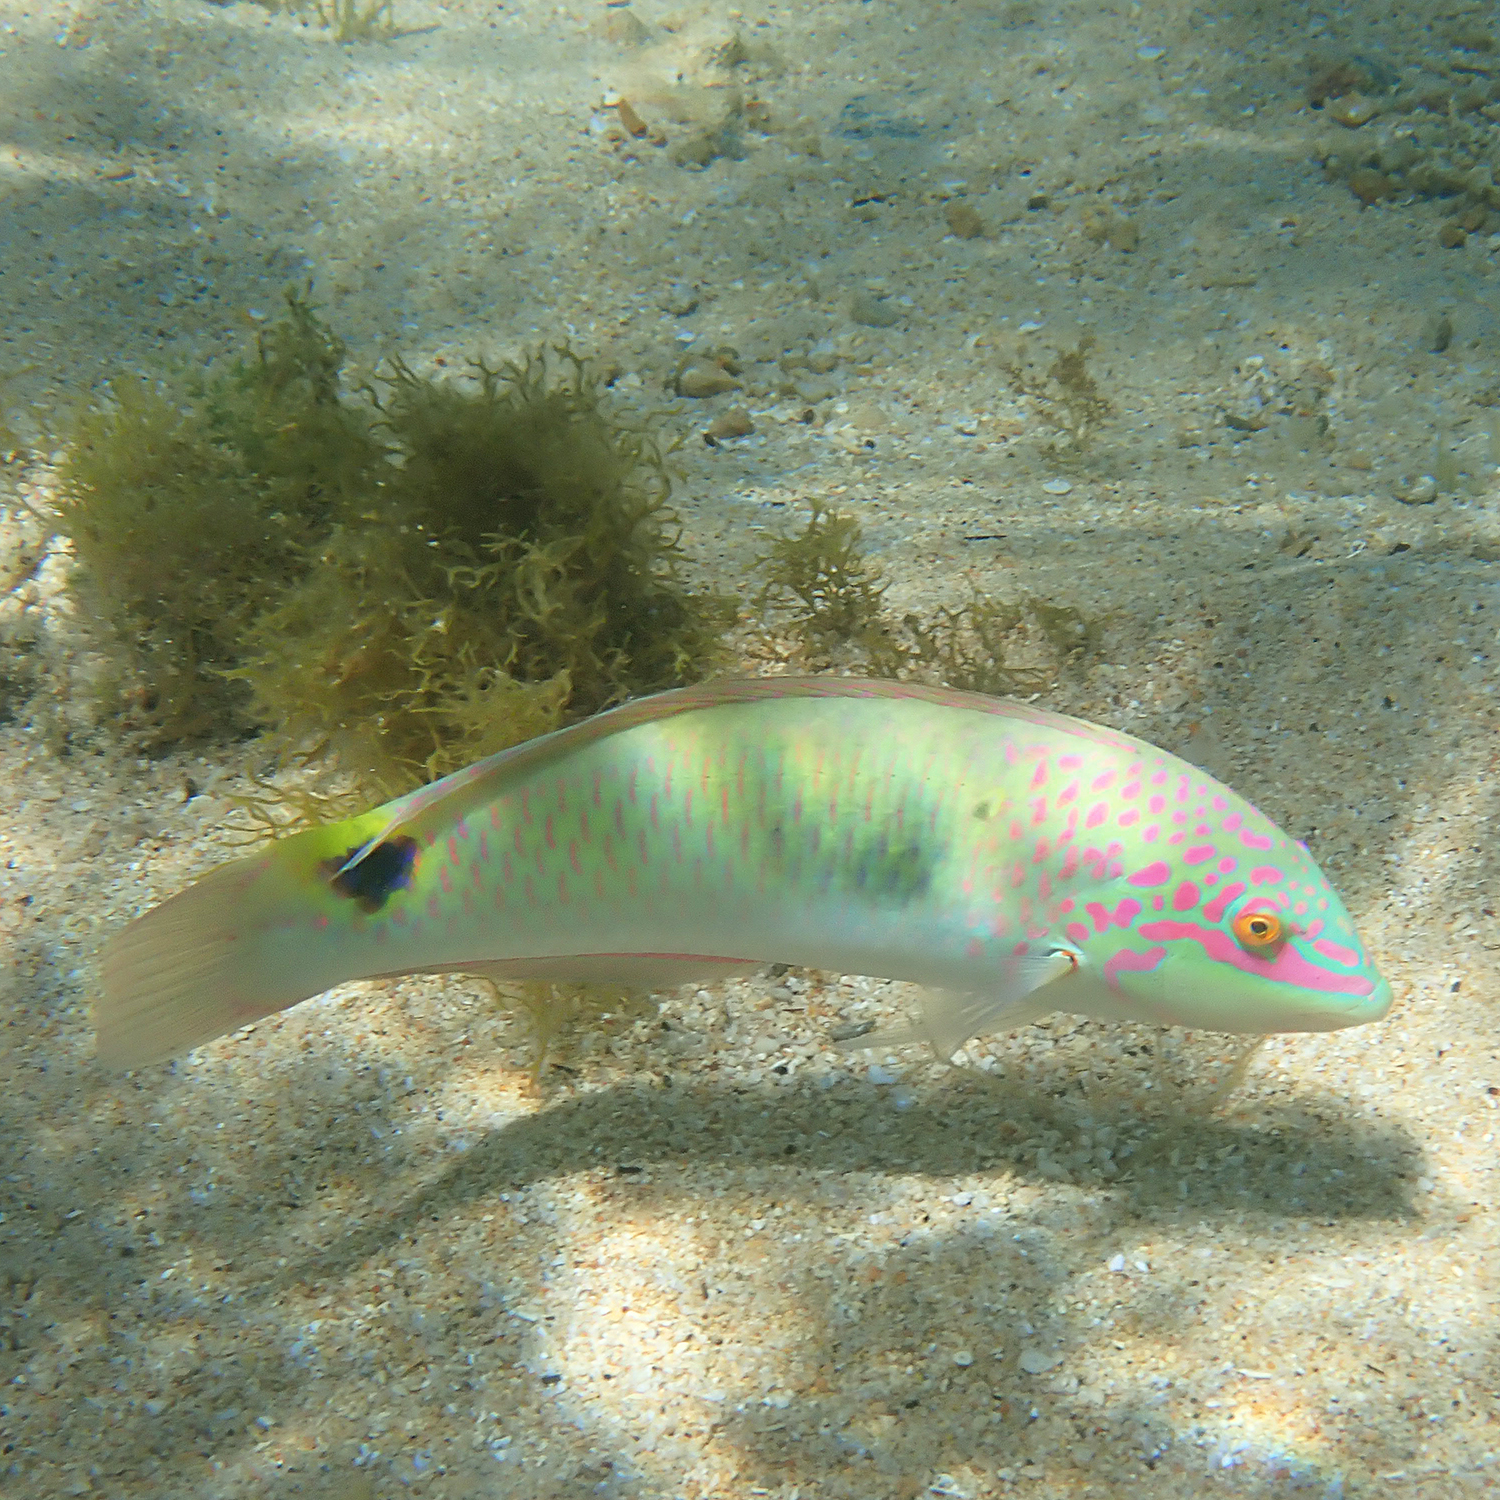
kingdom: Animalia
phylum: Chordata
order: Perciformes
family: Labridae
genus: Halichoeres
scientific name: Halichoeres trimaculatus
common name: Three-spot wrasse
